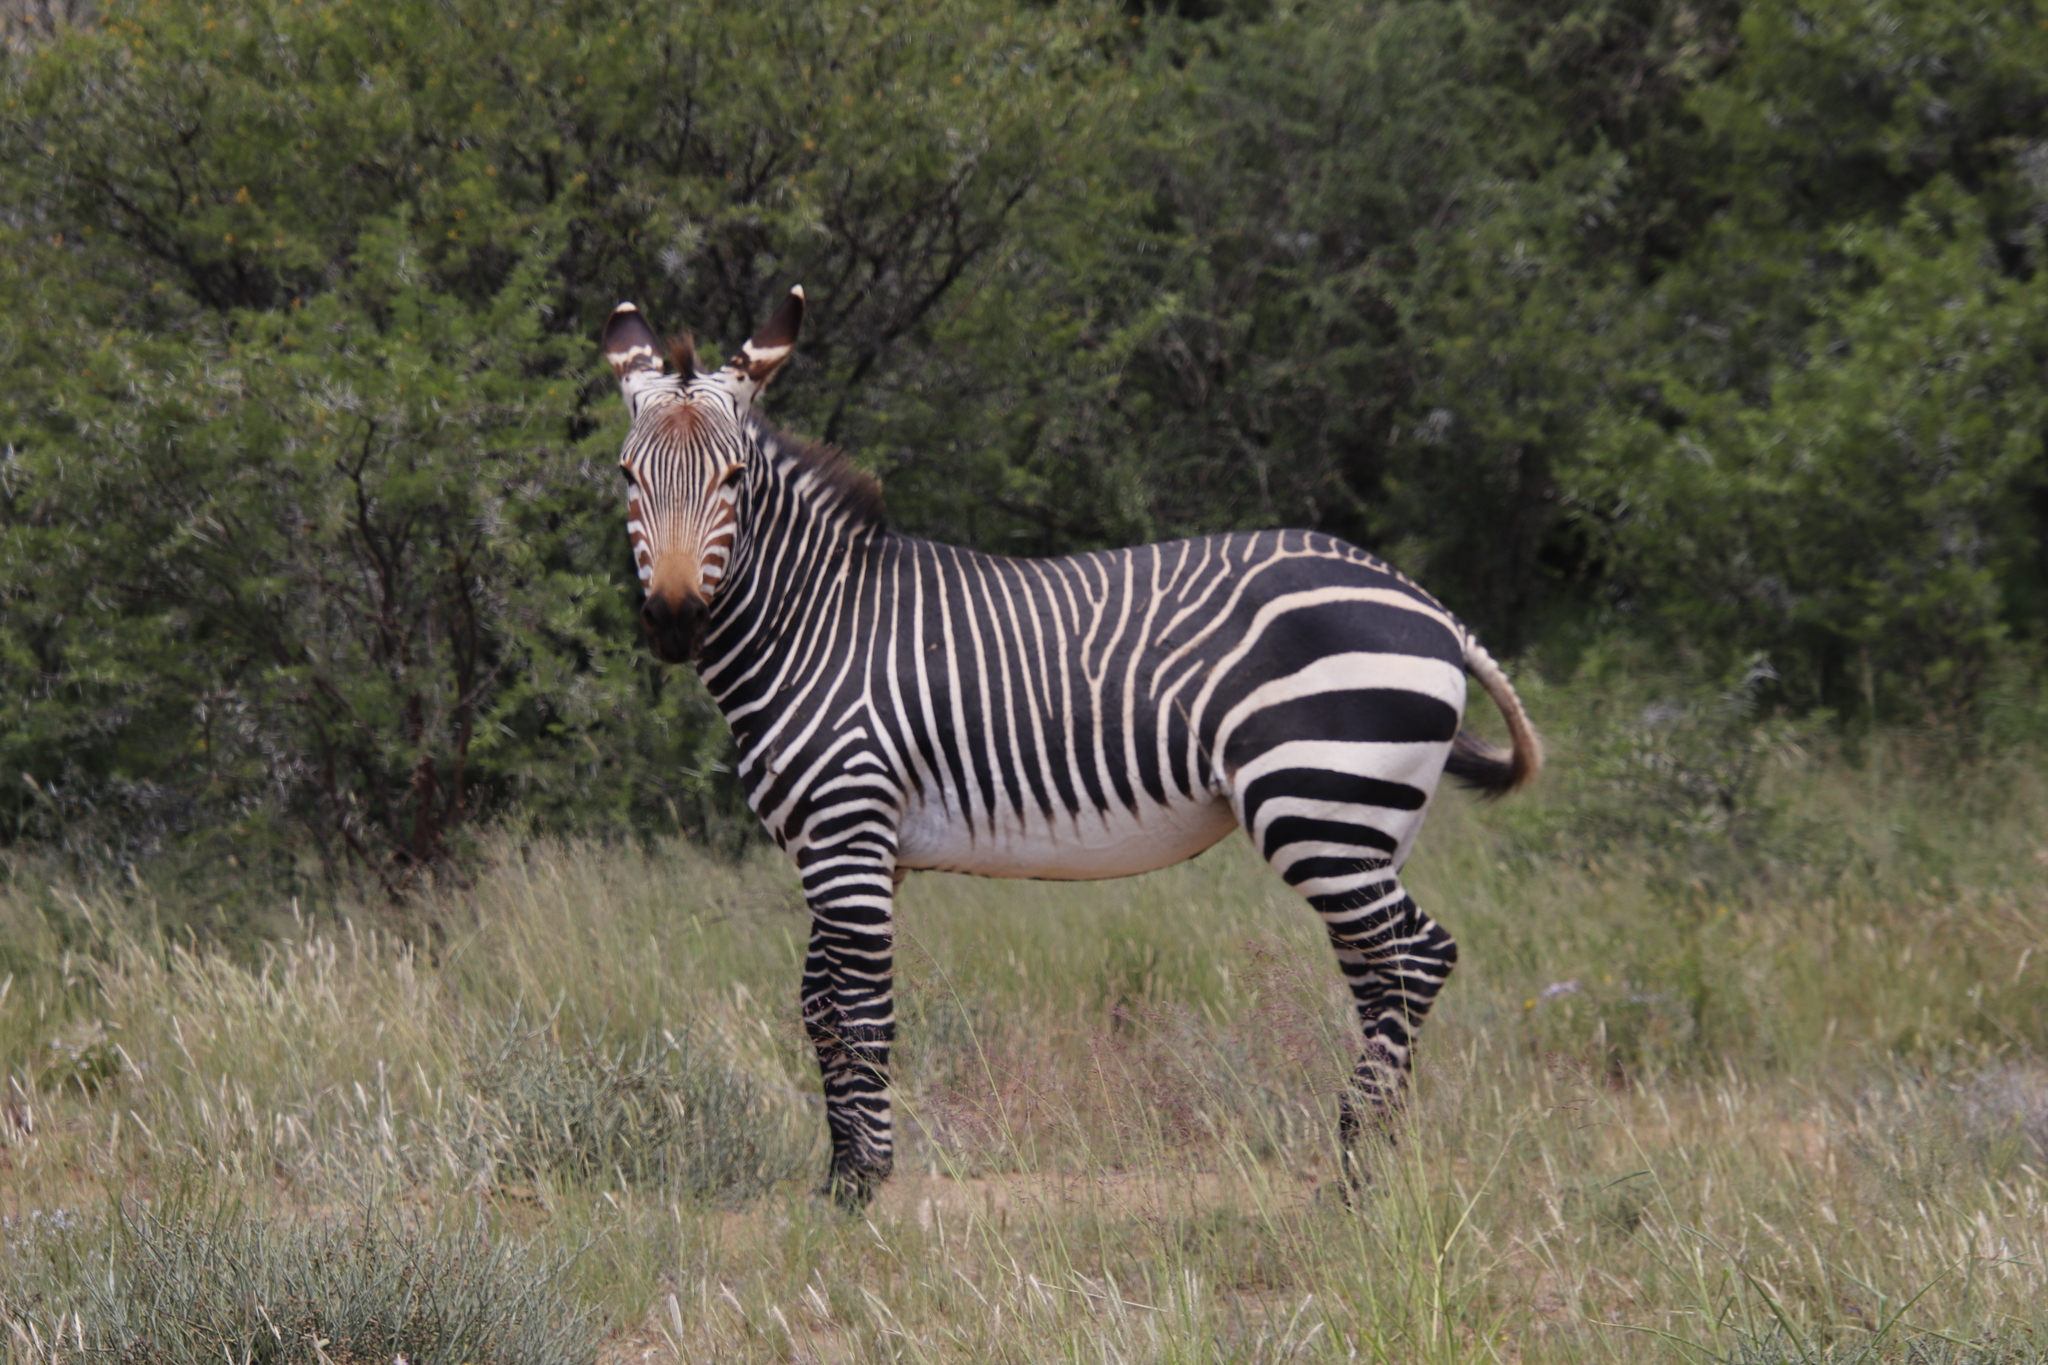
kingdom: Animalia
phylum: Chordata
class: Mammalia
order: Perissodactyla
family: Equidae
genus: Equus
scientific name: Equus zebra
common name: Mountain zebra
